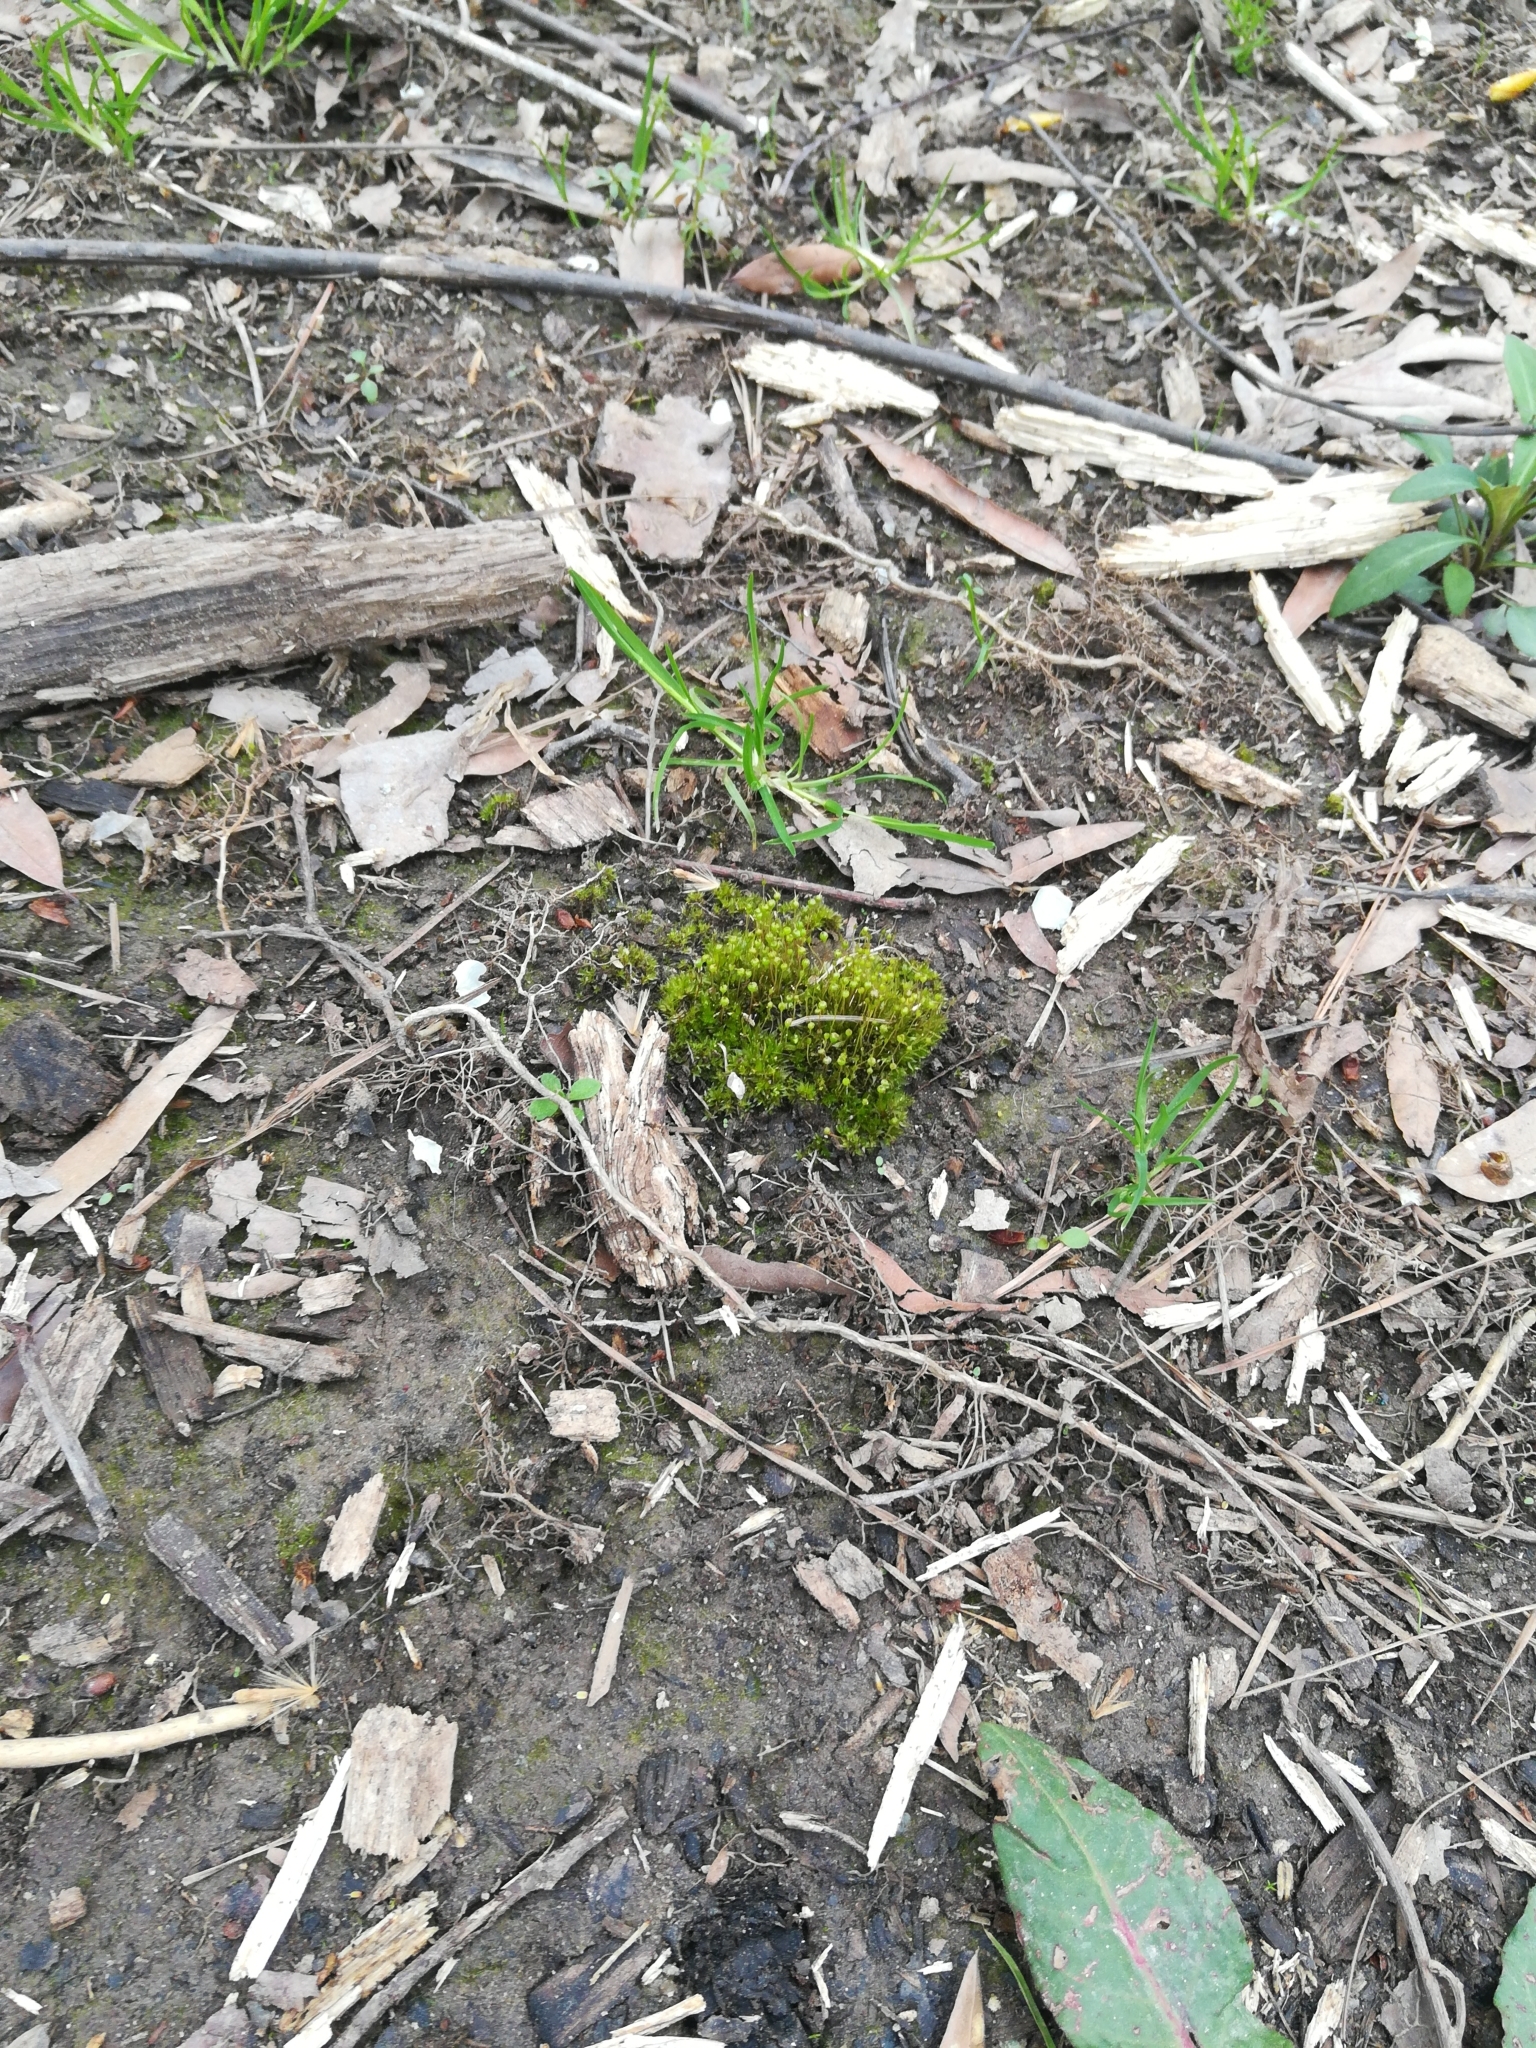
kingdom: Plantae
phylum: Bryophyta
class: Bryopsida
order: Funariales
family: Funariaceae
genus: Physcomitrium
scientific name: Physcomitrium pyriforme
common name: Common bladder-moss
